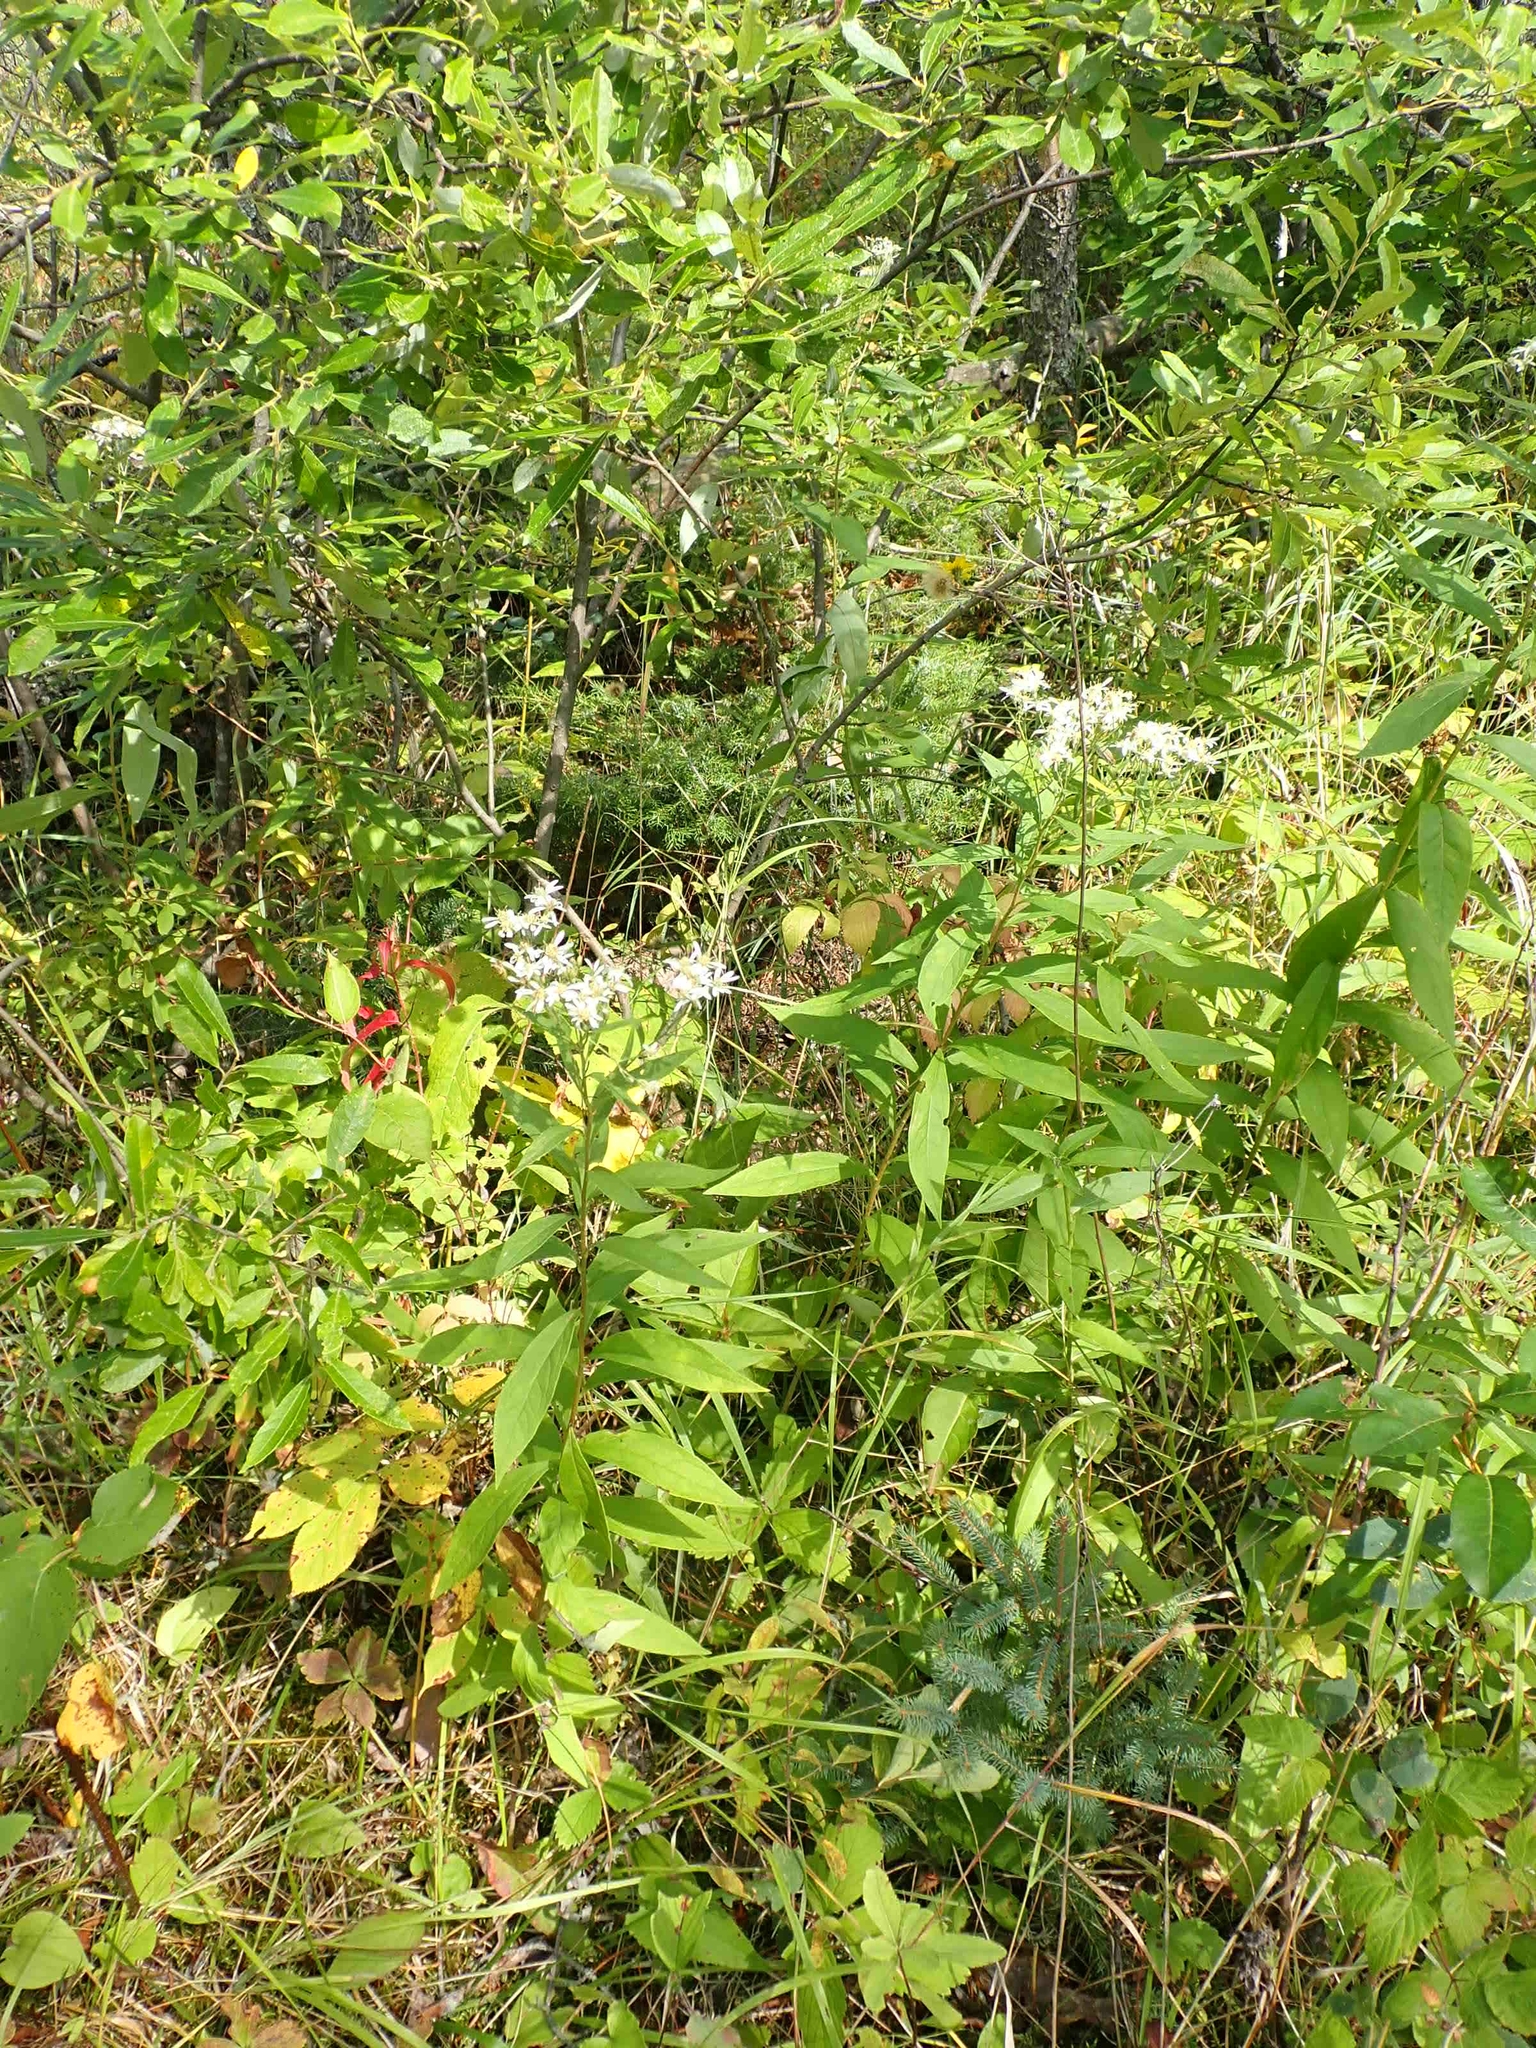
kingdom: Plantae
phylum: Tracheophyta
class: Magnoliopsida
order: Asterales
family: Asteraceae
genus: Doellingeria
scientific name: Doellingeria umbellata
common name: Flat-top white aster
